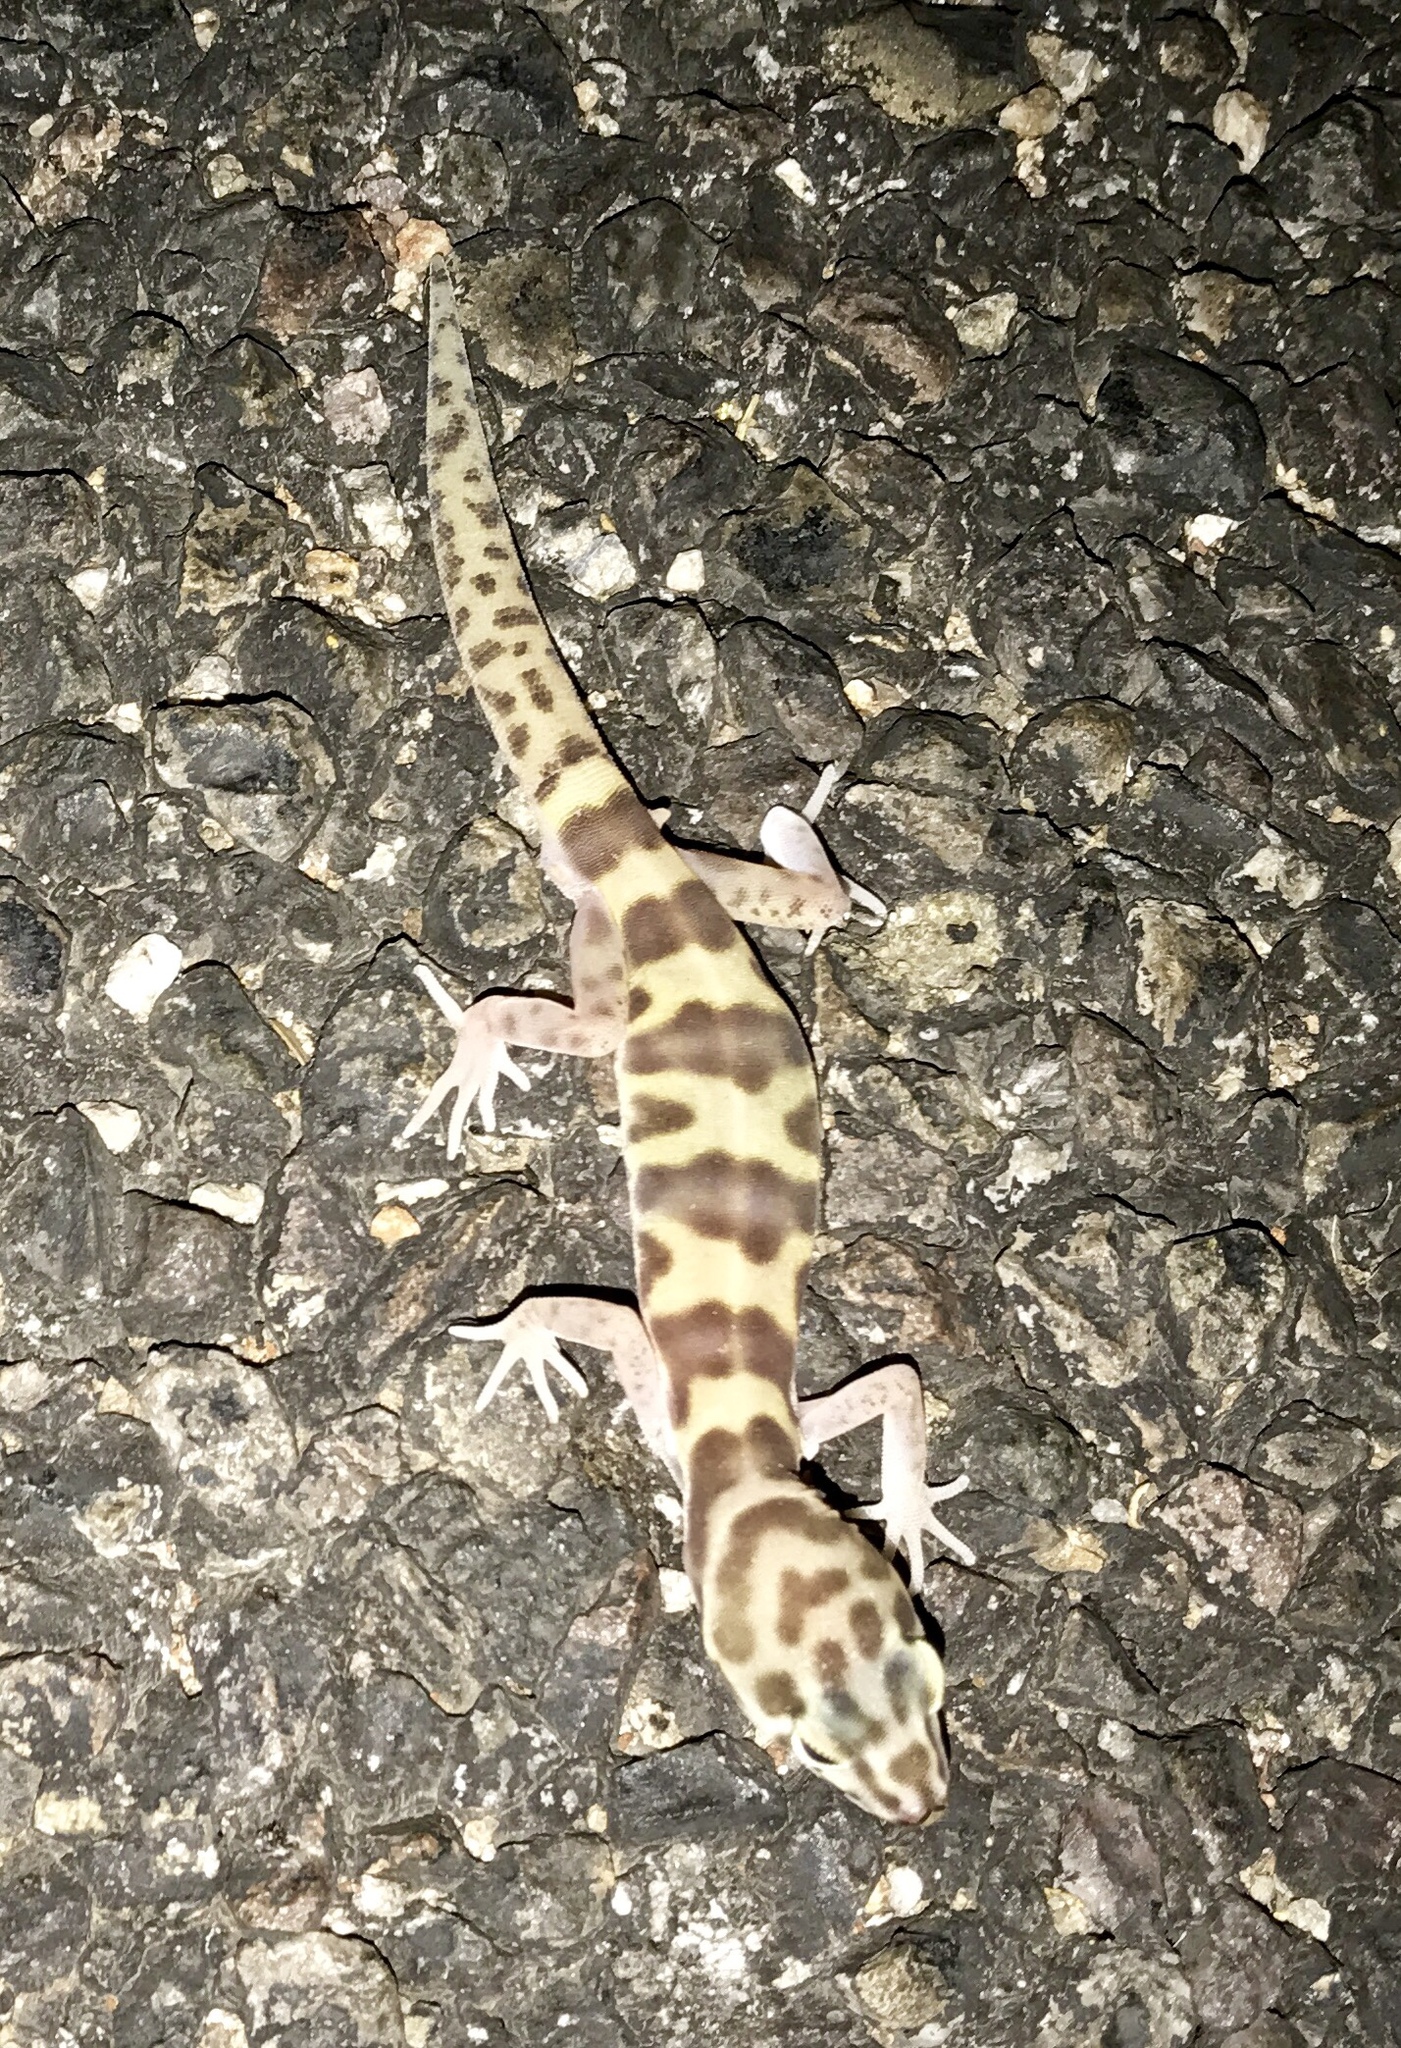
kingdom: Animalia
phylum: Chordata
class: Squamata
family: Eublepharidae
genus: Coleonyx
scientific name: Coleonyx variegatus
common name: Western banded gecko
